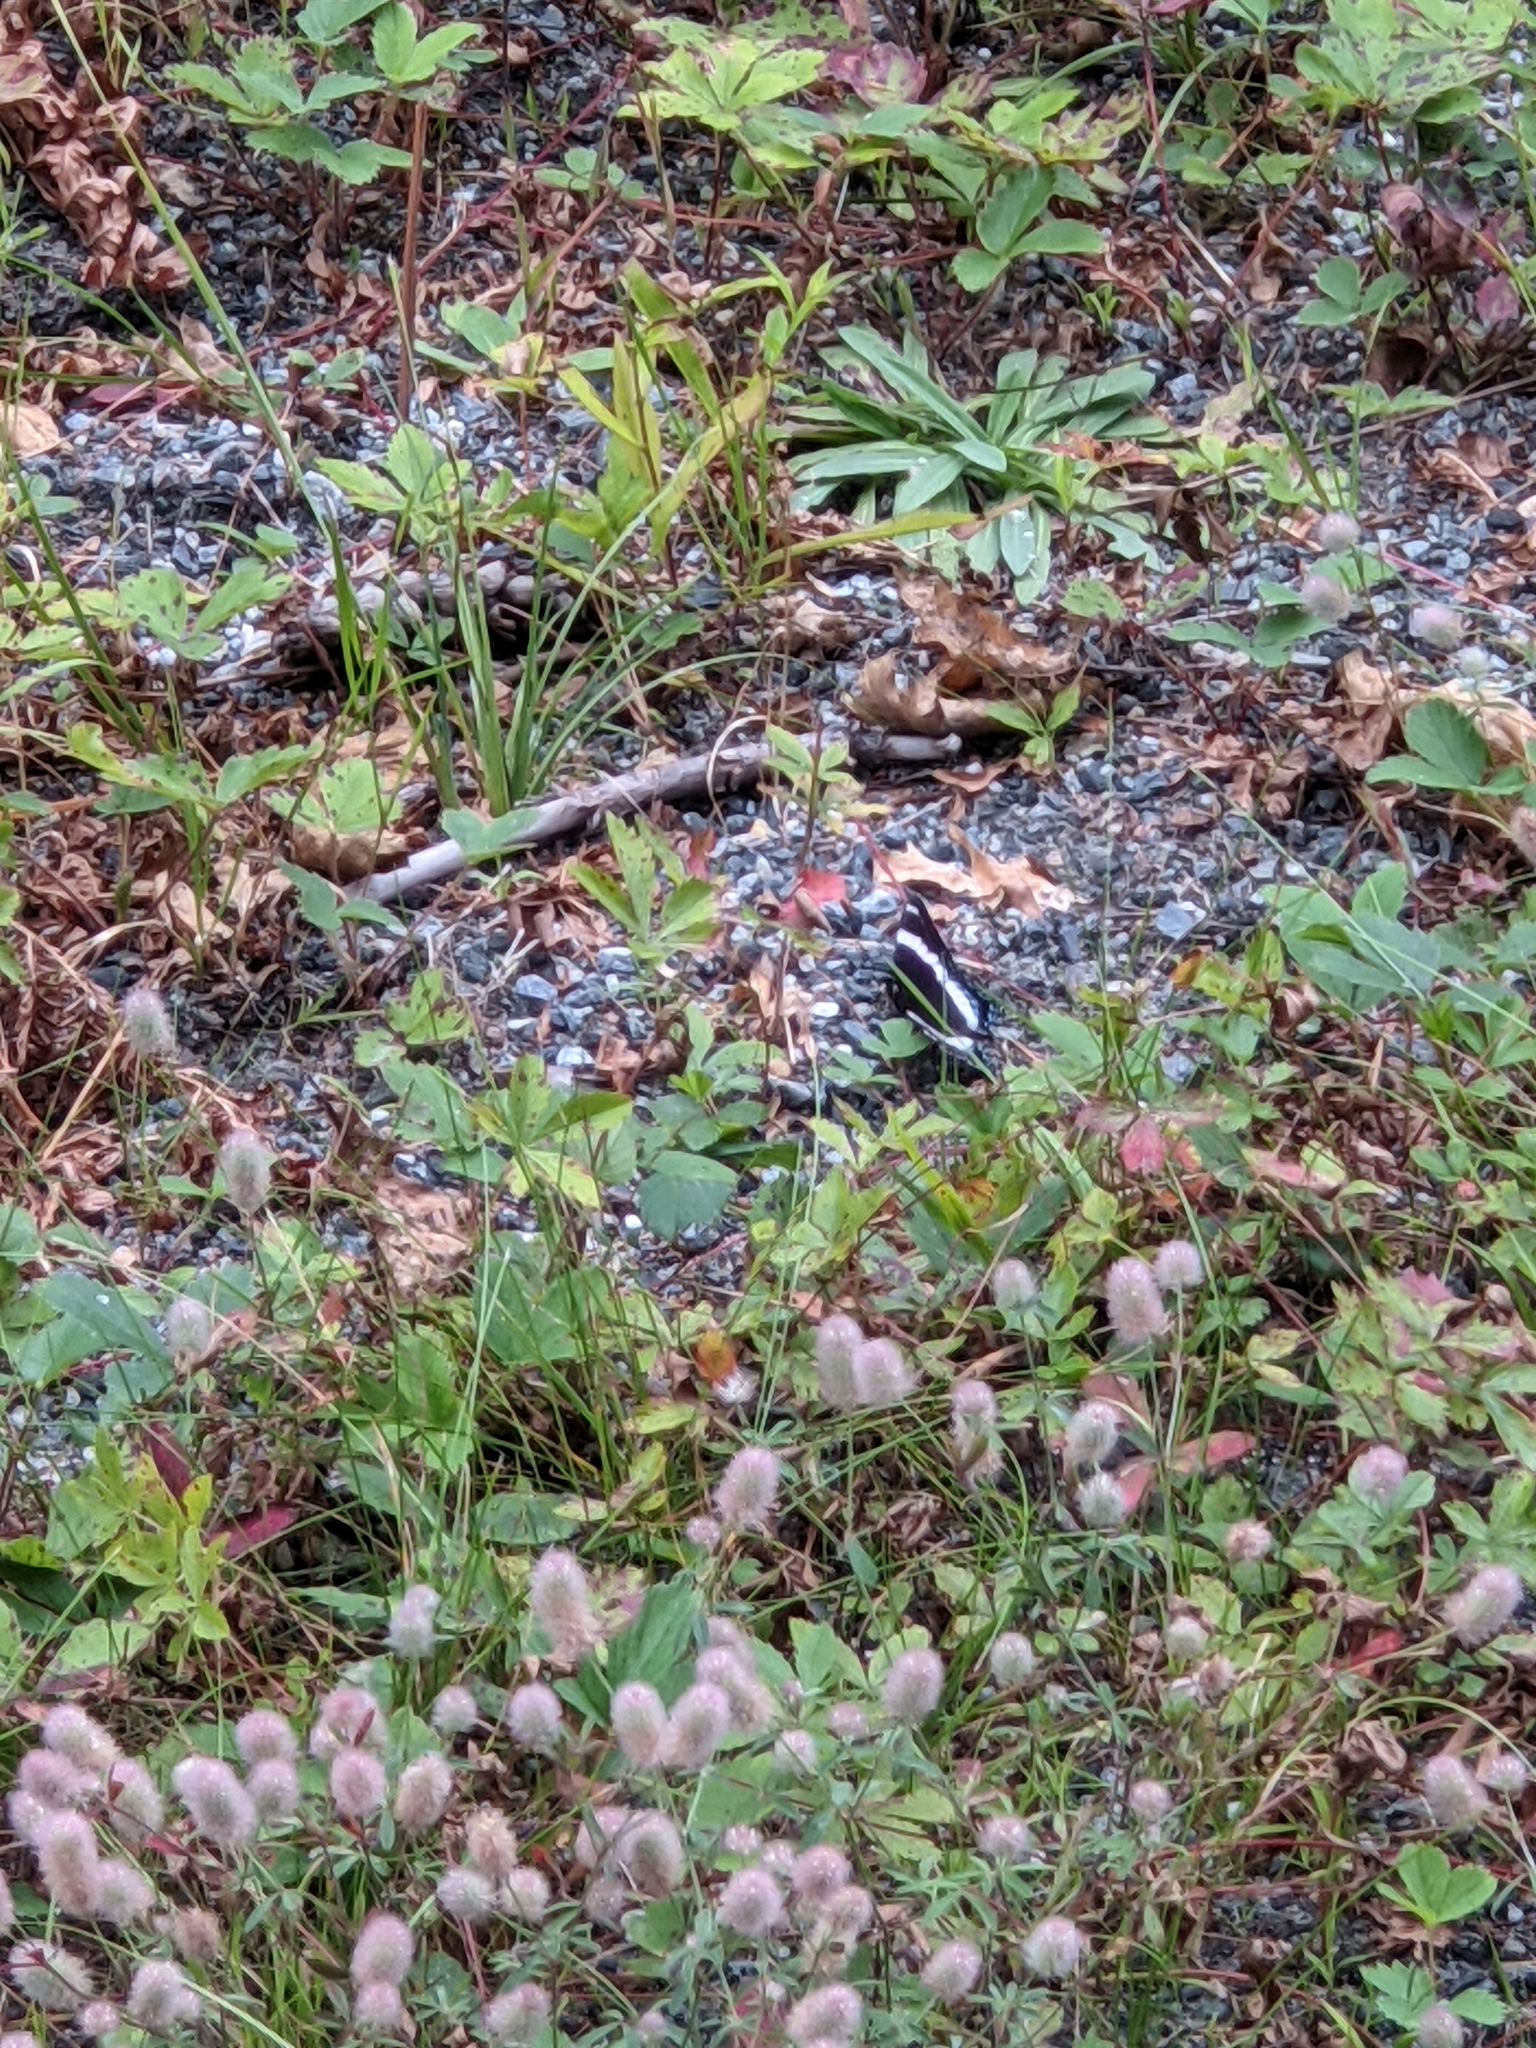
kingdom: Animalia
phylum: Arthropoda
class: Insecta
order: Lepidoptera
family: Nymphalidae
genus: Limenitis
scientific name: Limenitis arthemis
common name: Red-spotted admiral
